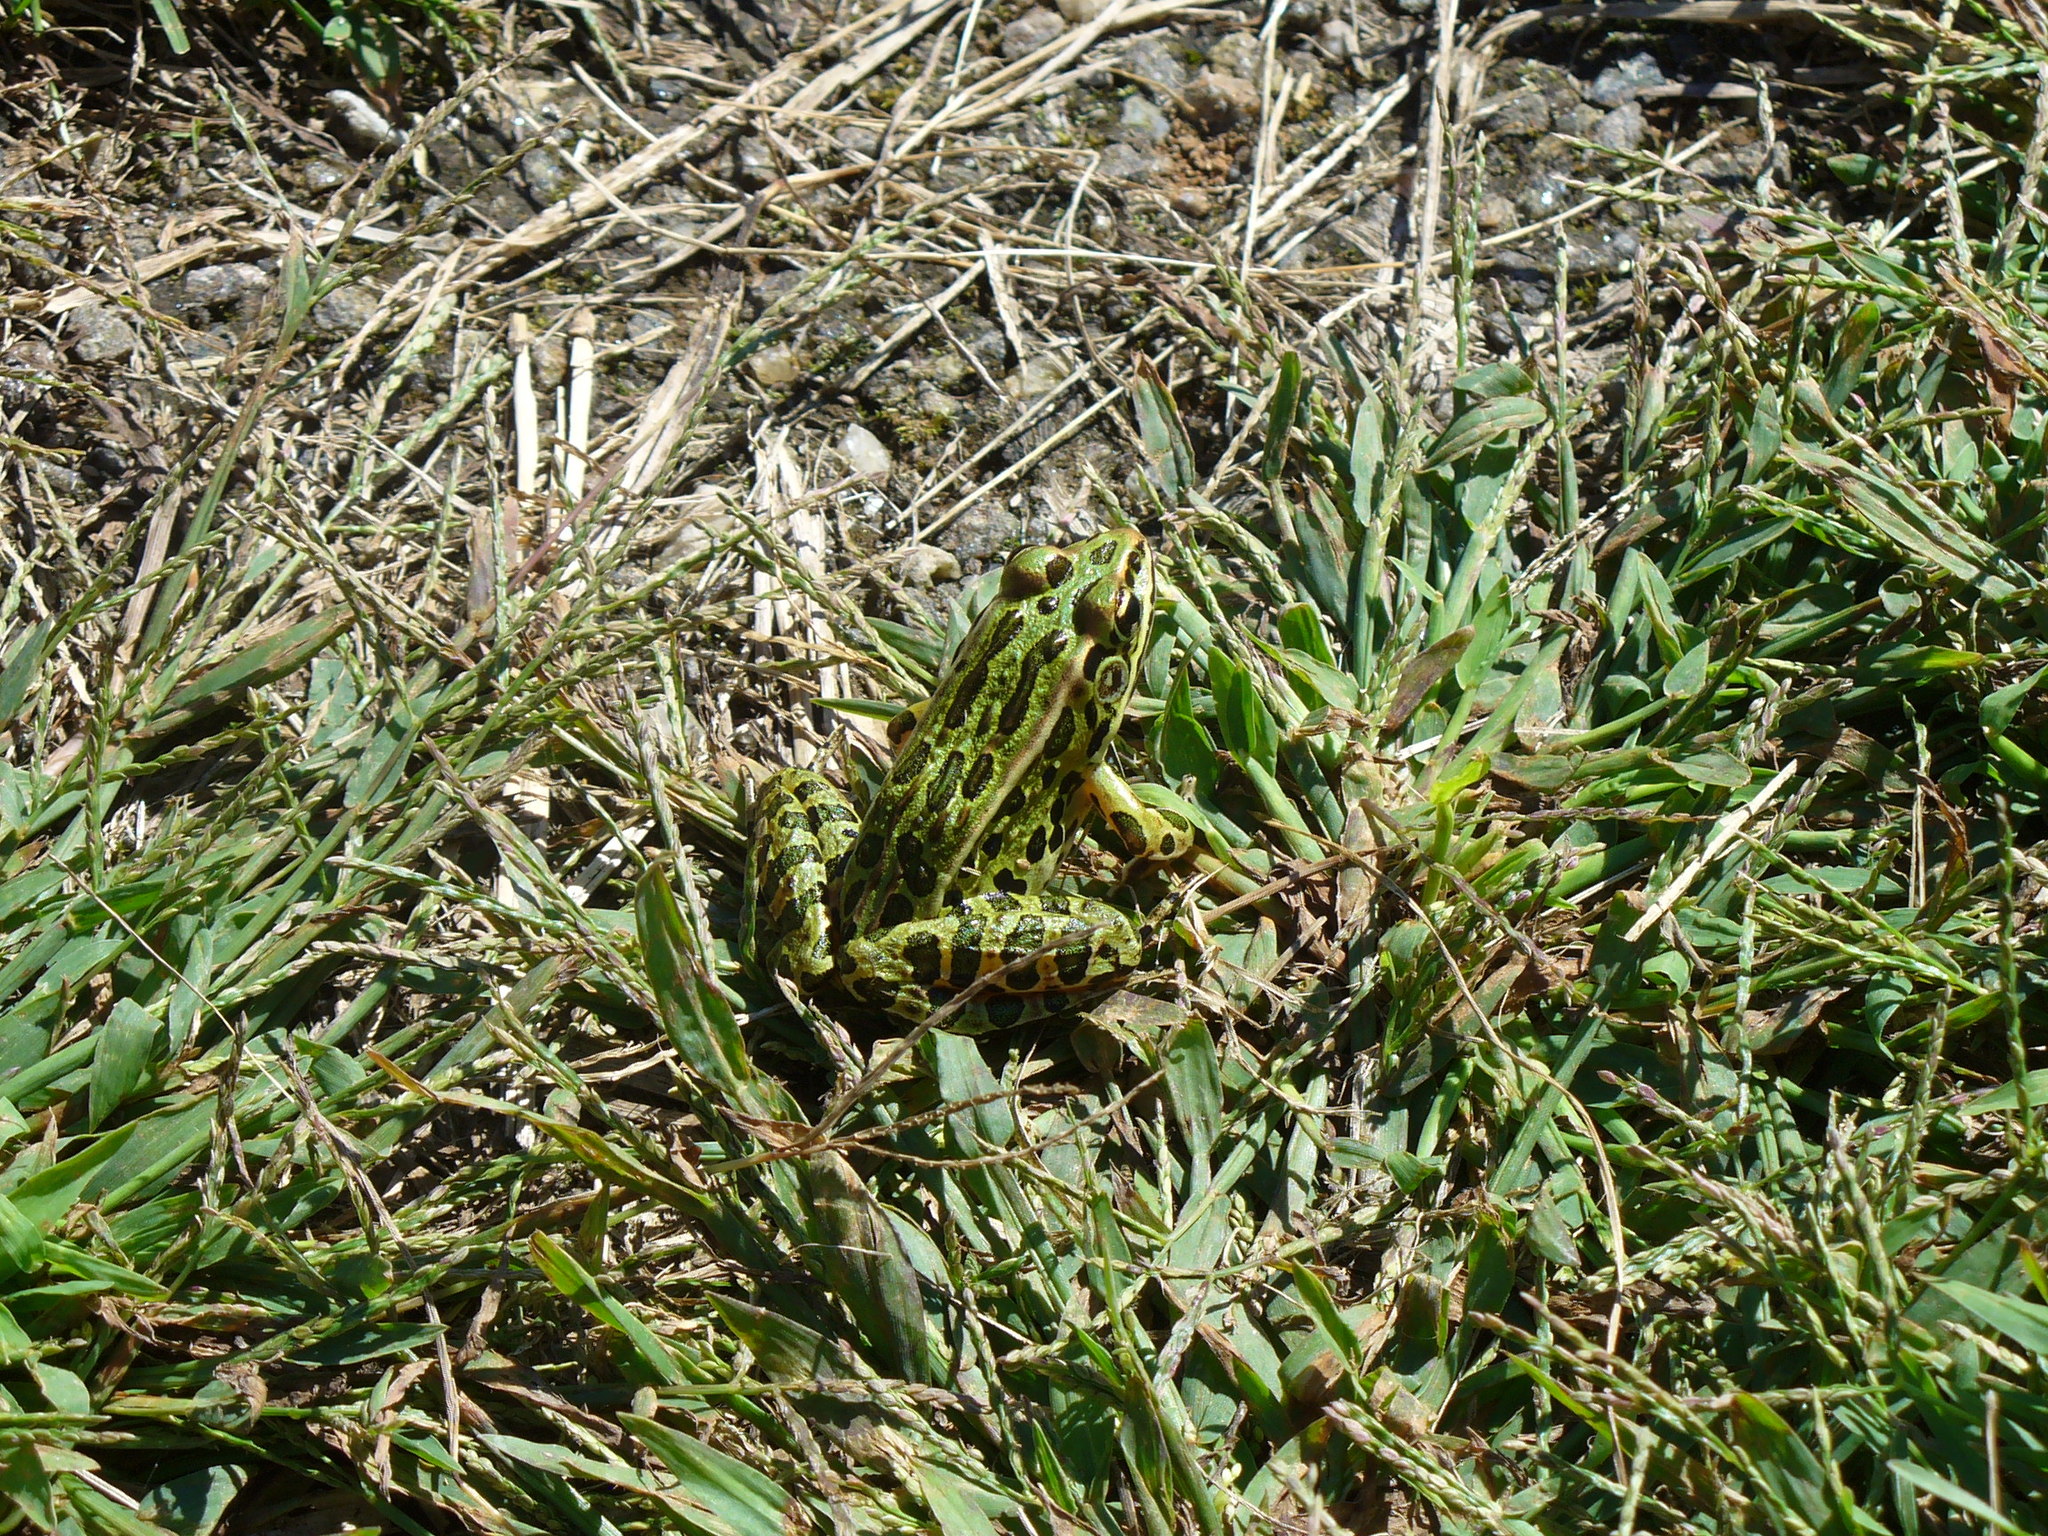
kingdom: Animalia
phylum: Chordata
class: Amphibia
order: Anura
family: Ranidae
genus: Lithobates
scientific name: Lithobates pipiens
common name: Northern leopard frog
